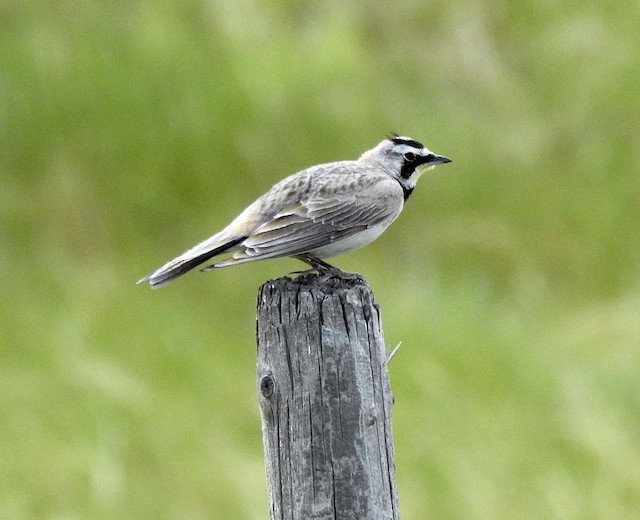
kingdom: Animalia
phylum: Chordata
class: Aves
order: Passeriformes
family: Alaudidae
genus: Eremophila
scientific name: Eremophila alpestris
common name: Horned lark
